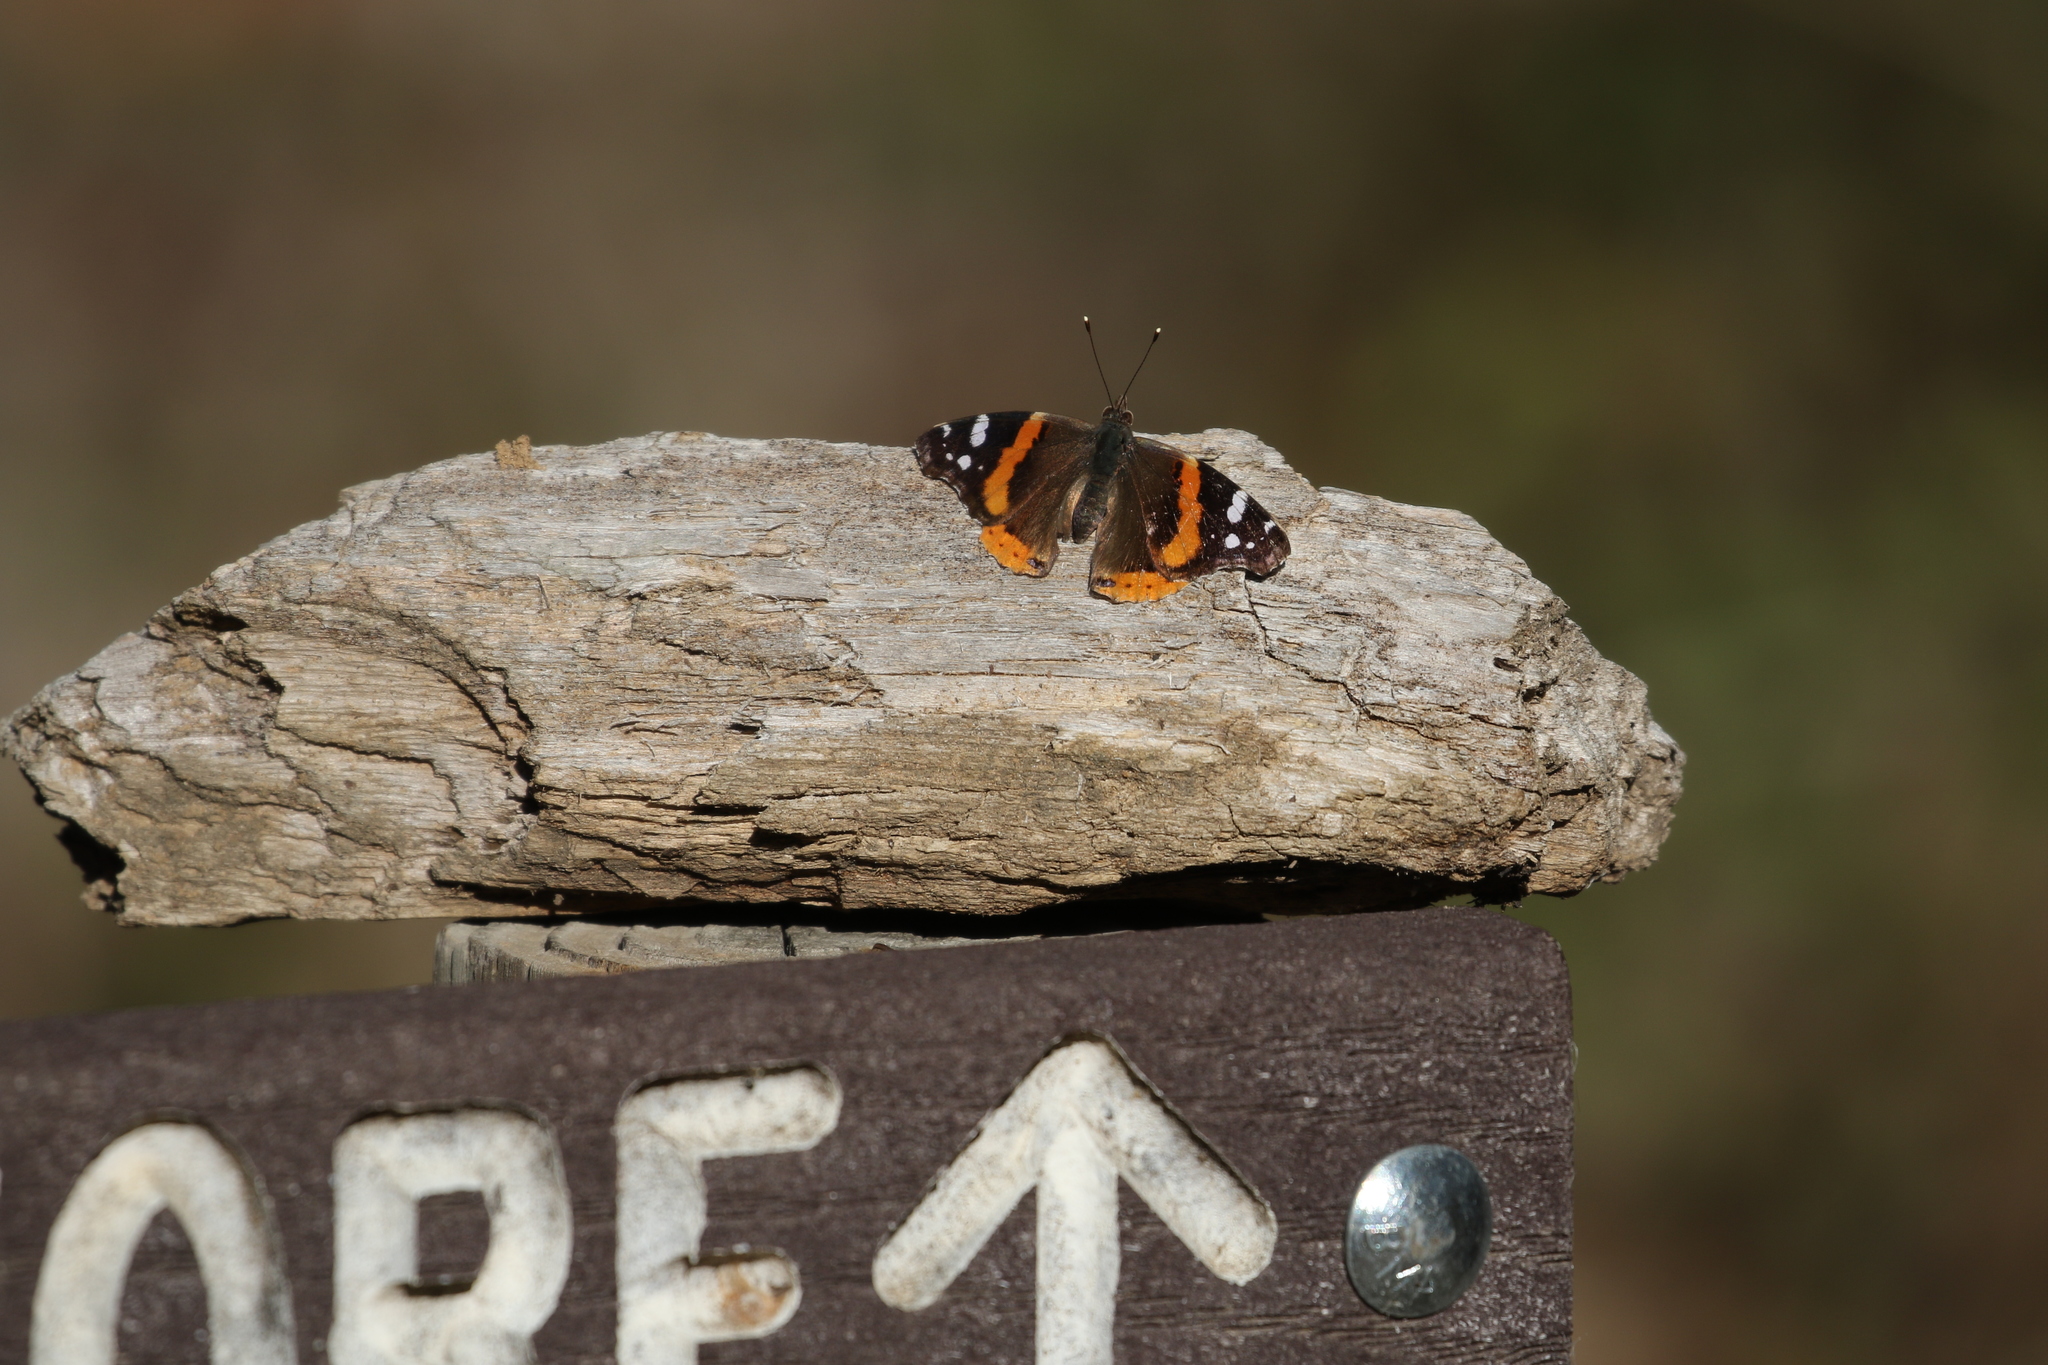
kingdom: Animalia
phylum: Arthropoda
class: Insecta
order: Lepidoptera
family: Nymphalidae
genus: Vanessa
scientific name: Vanessa atalanta
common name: Red admiral
